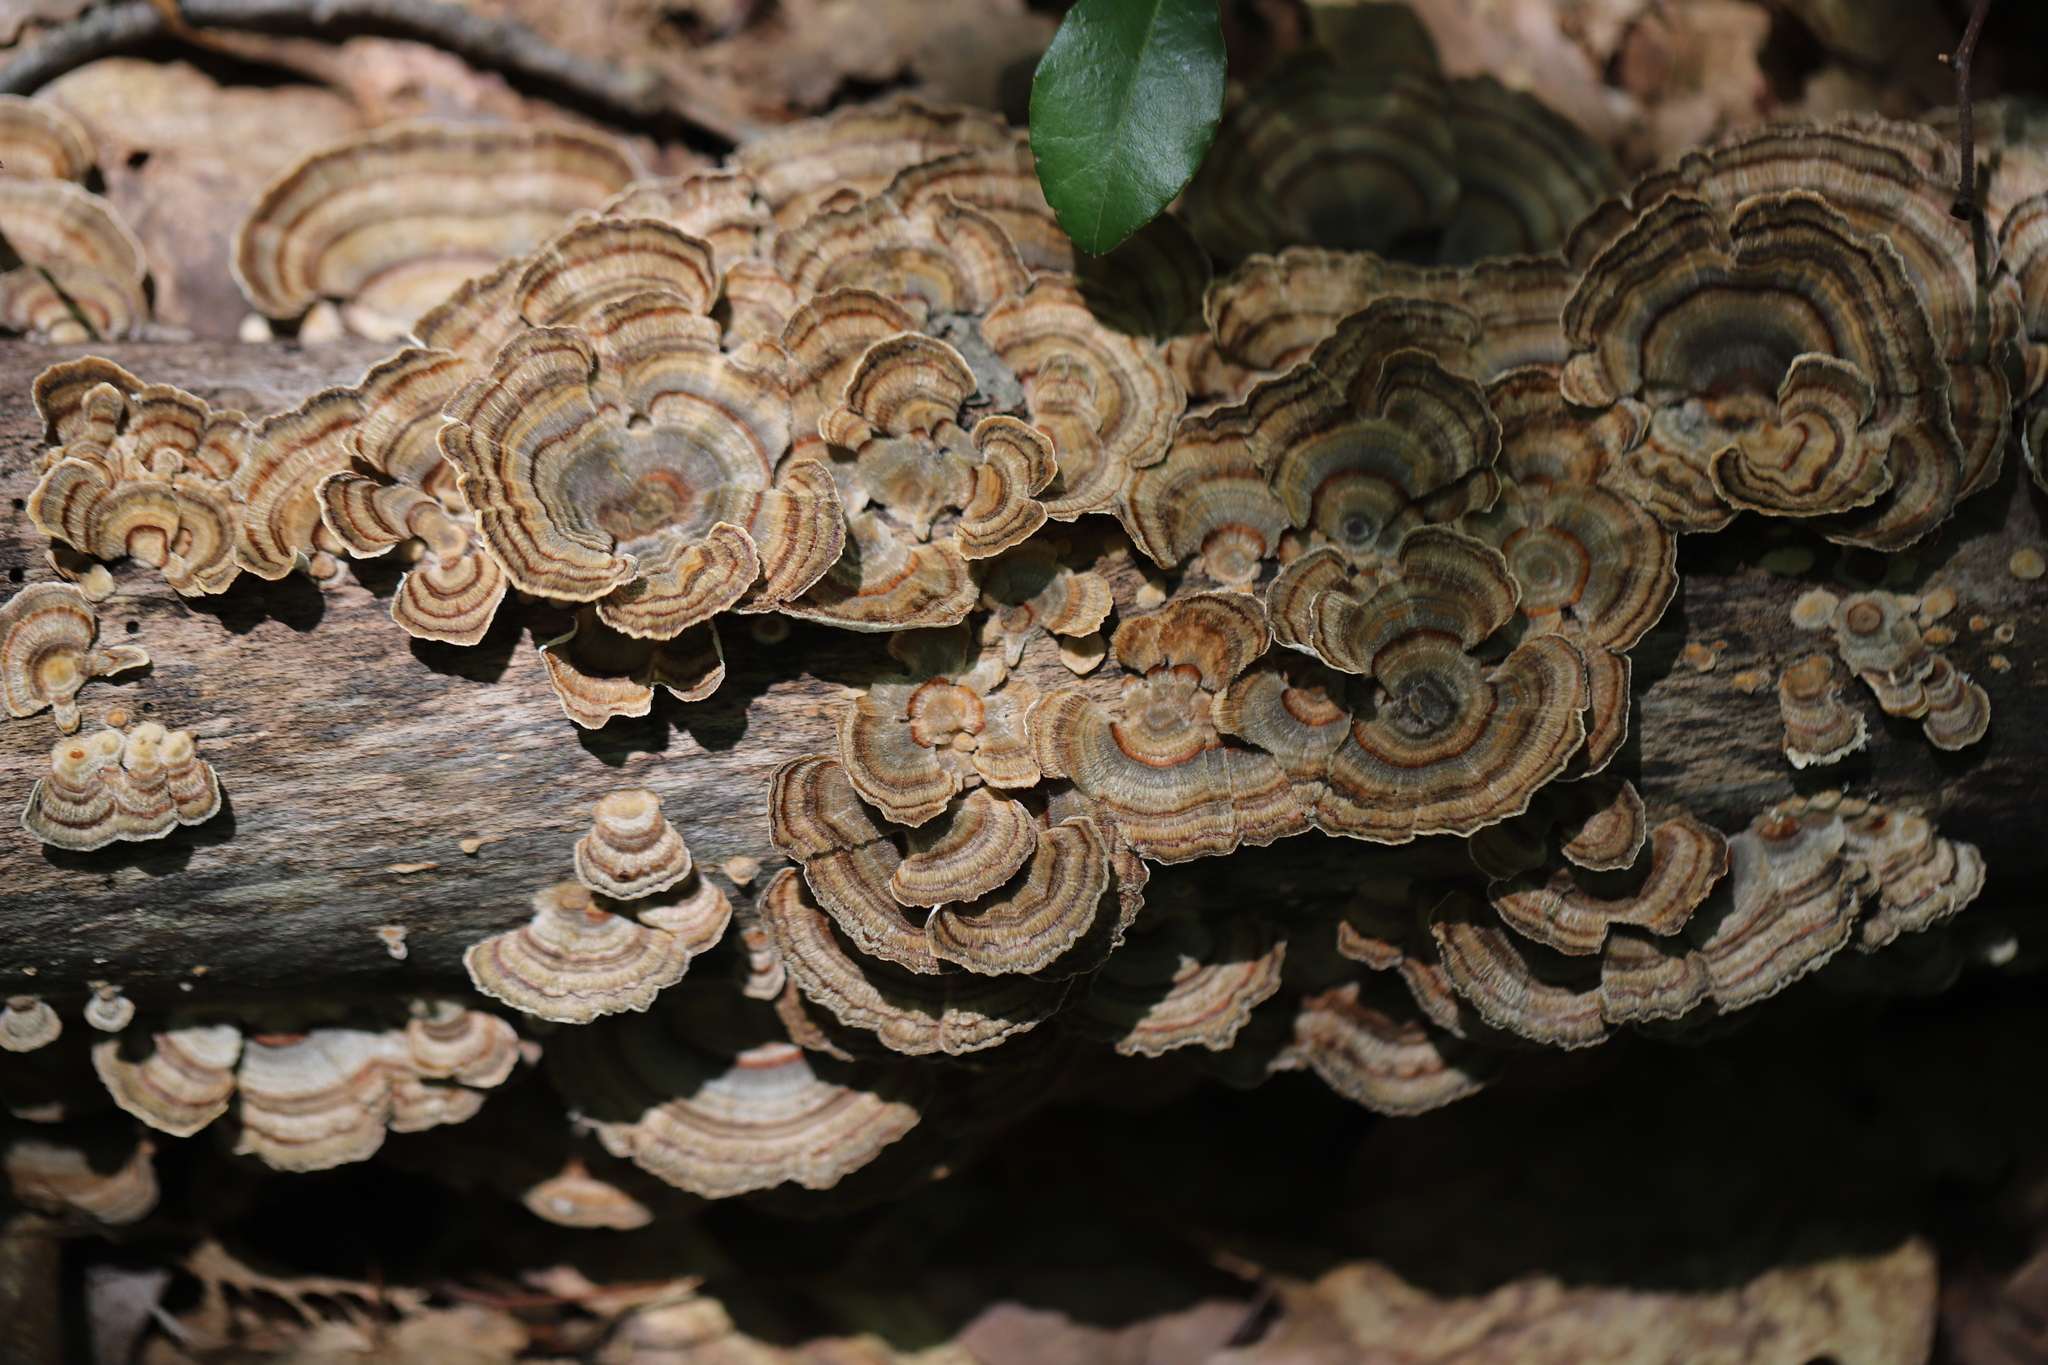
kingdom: Fungi
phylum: Basidiomycota
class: Agaricomycetes
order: Polyporales
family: Polyporaceae
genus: Trametes
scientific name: Trametes versicolor
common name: Turkeytail
